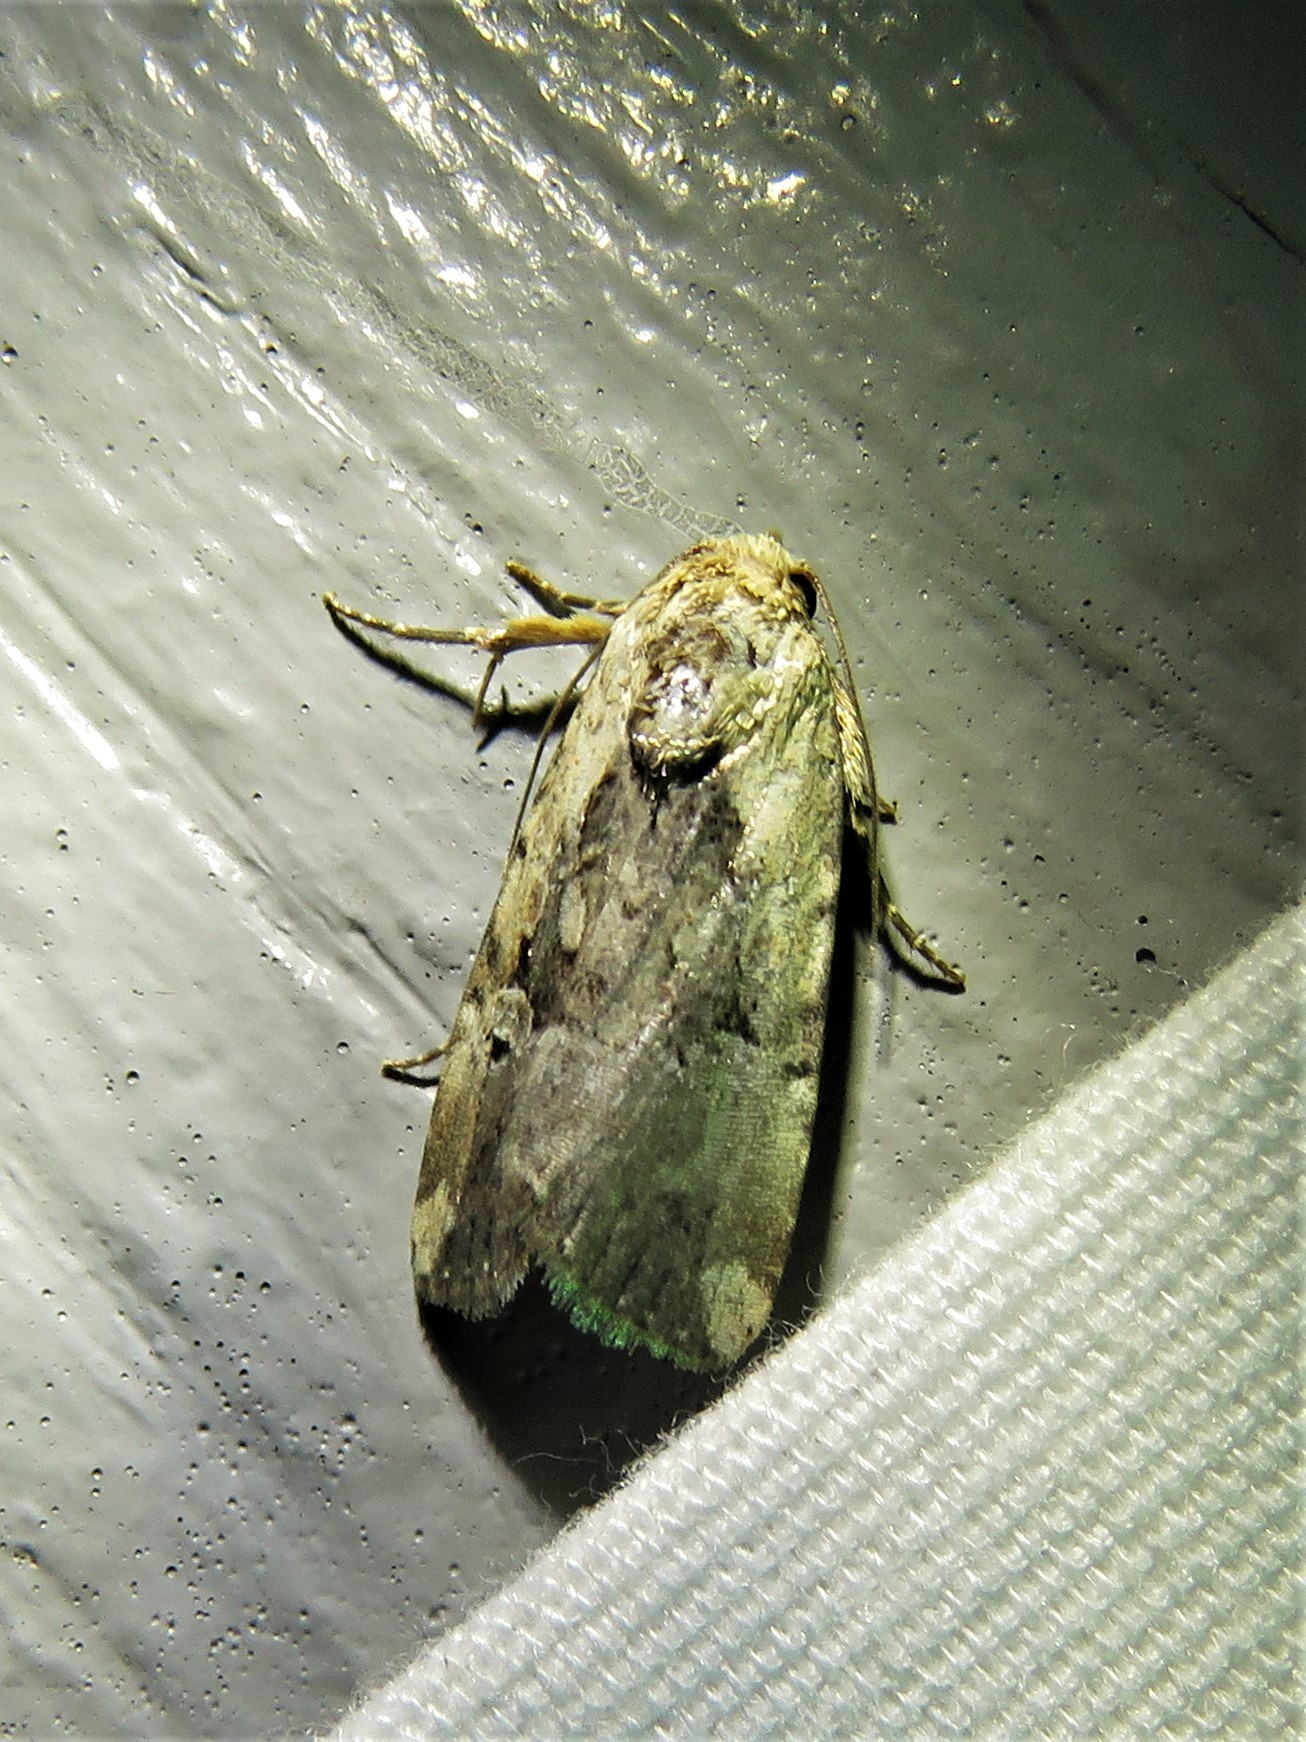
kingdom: Animalia
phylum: Arthropoda
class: Insecta
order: Lepidoptera
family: Noctuidae
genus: Elaphria
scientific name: Elaphria chalcedonia
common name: Chalcedony midget
